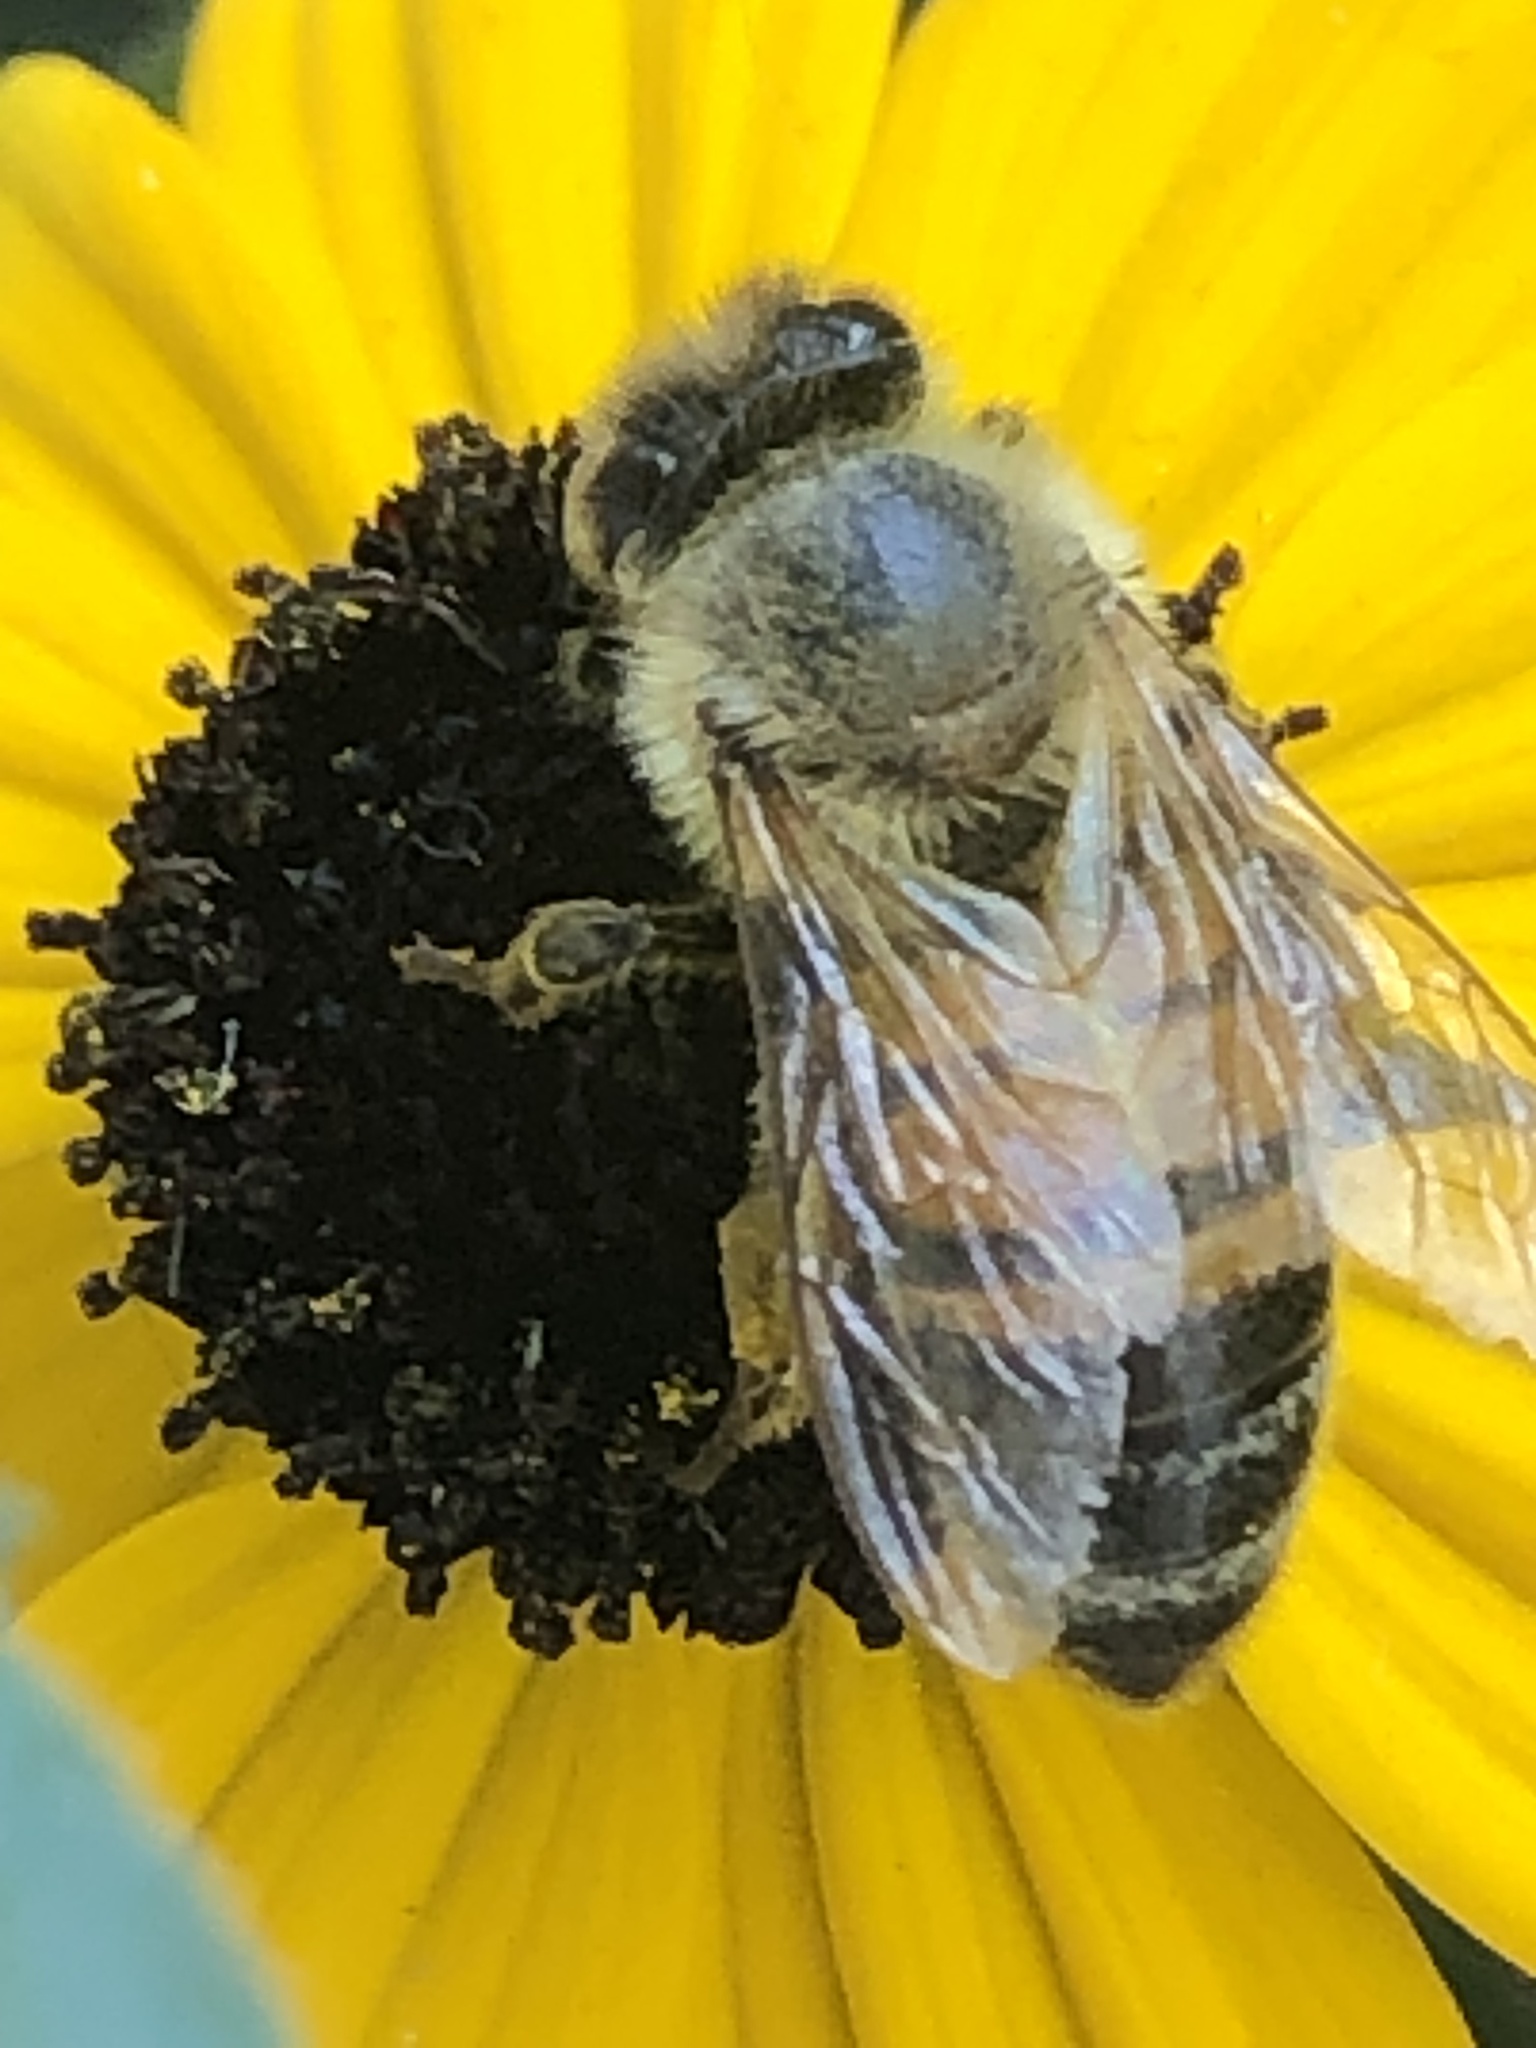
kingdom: Animalia
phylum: Arthropoda
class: Insecta
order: Hymenoptera
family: Apidae
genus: Apis
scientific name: Apis mellifera
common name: Honey bee
